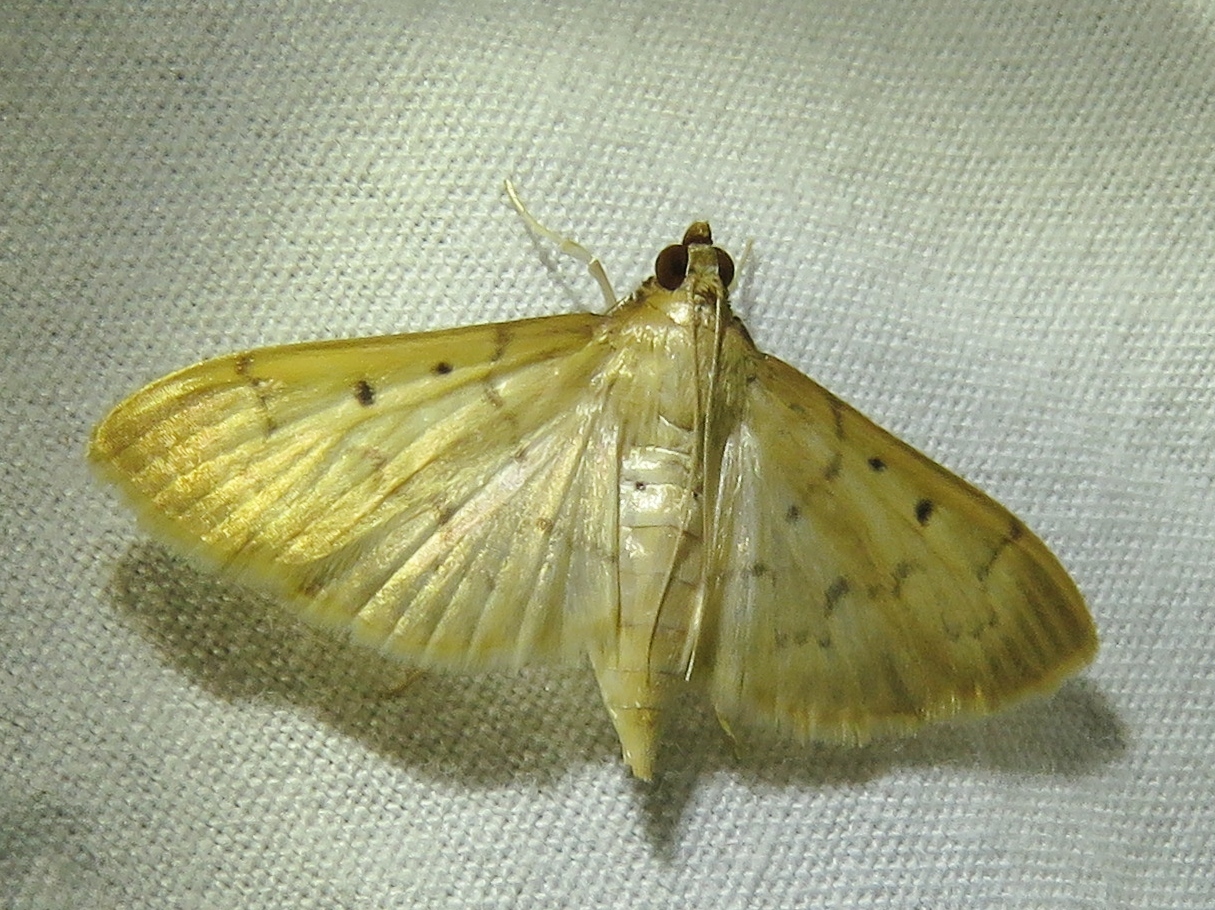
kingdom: Animalia
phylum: Arthropoda
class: Insecta
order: Lepidoptera
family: Crambidae
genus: Herpetogramma
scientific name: Herpetogramma bipunctalis
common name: Southern beet webworm
